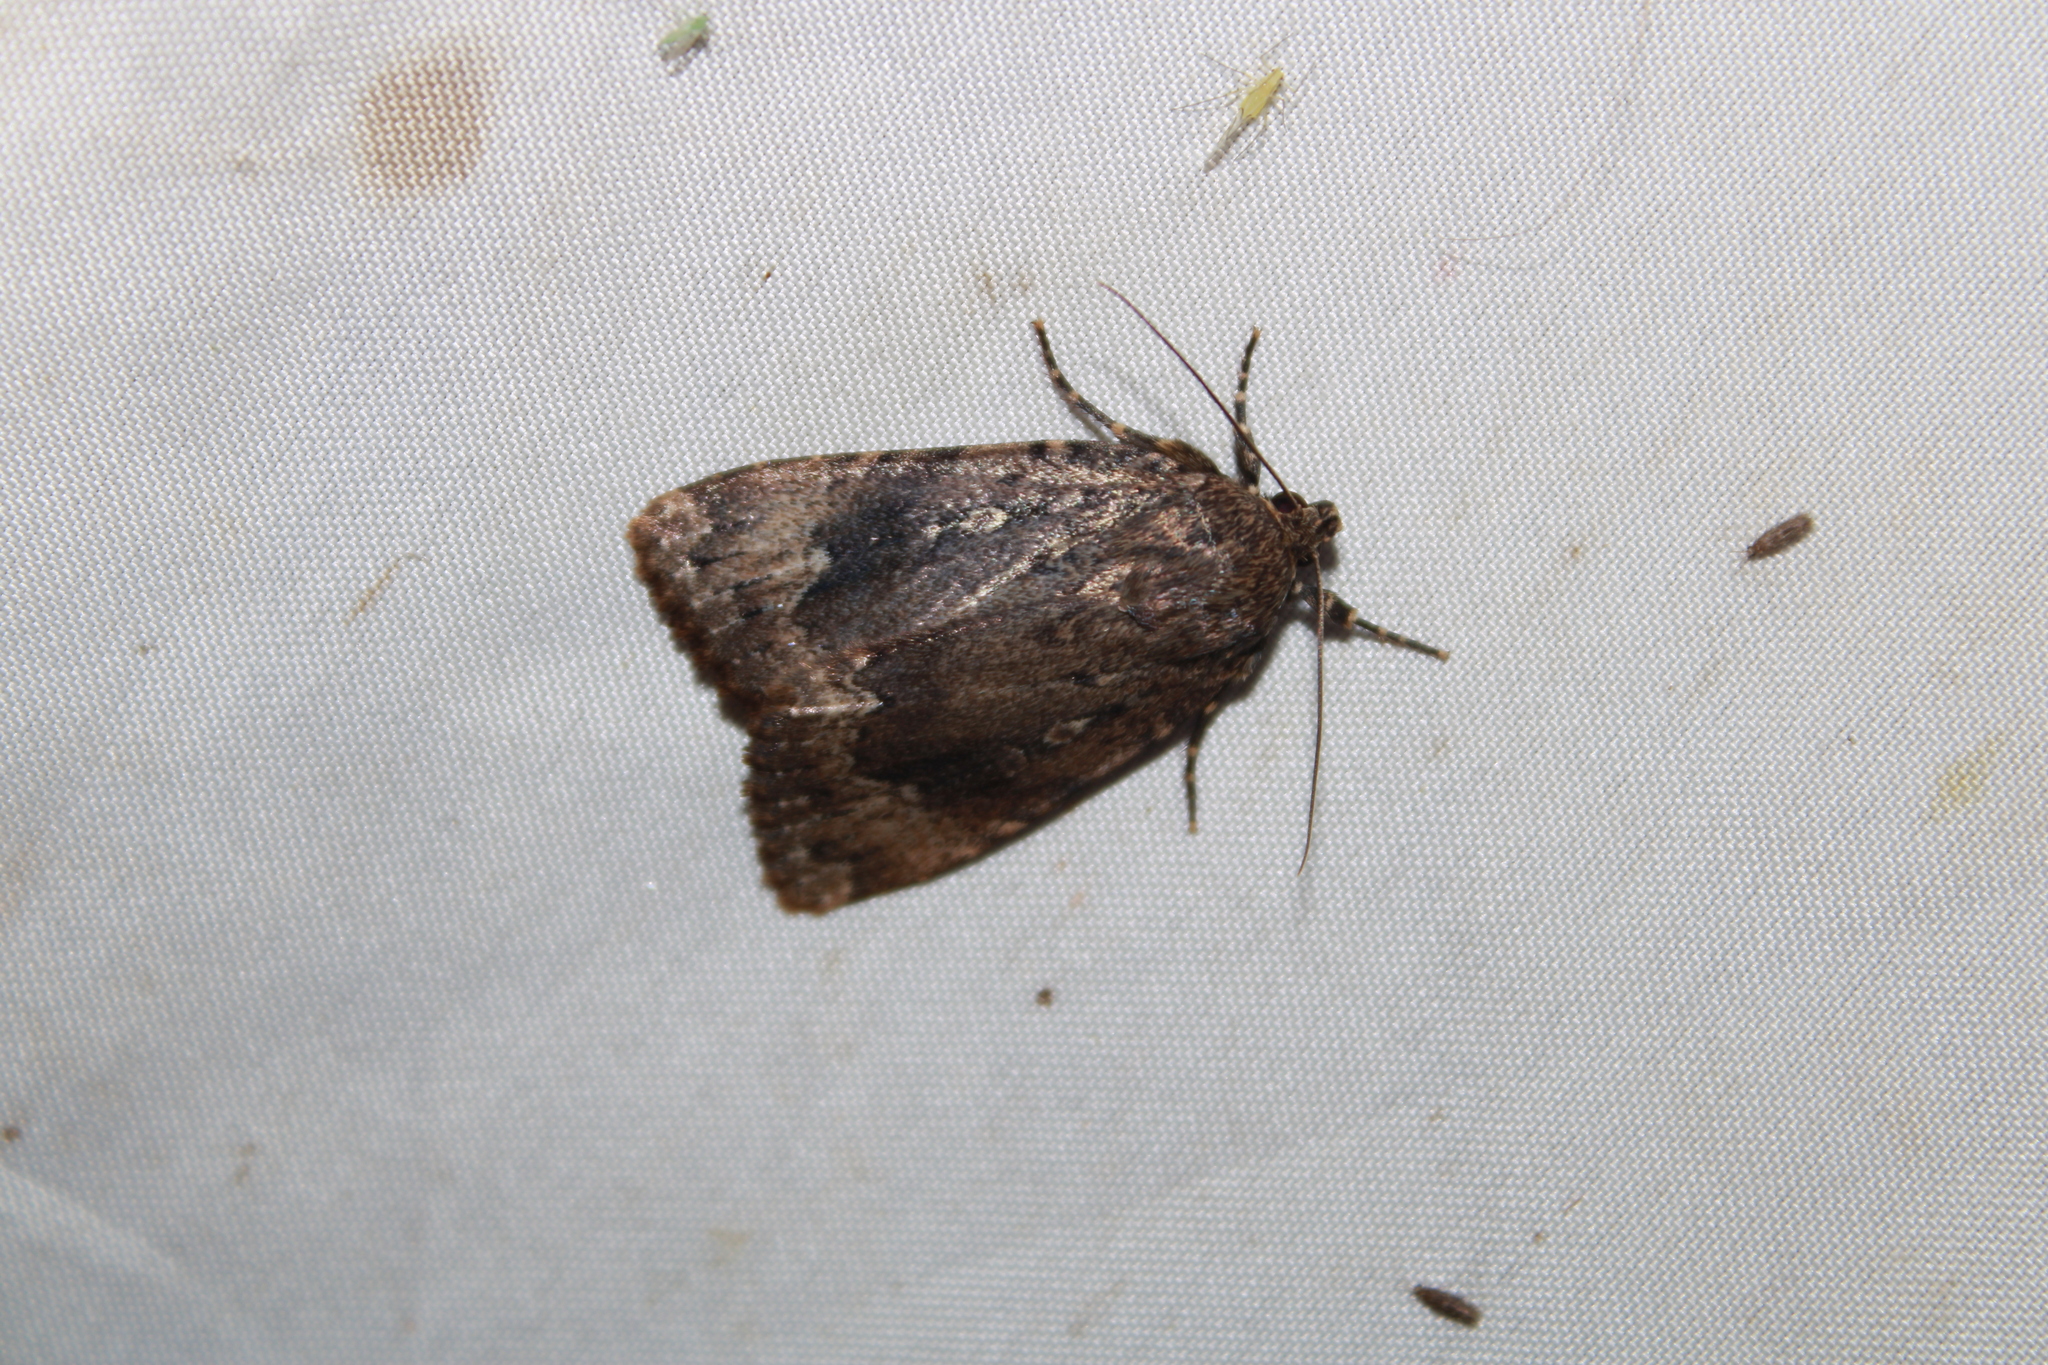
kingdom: Animalia
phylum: Arthropoda
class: Insecta
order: Lepidoptera
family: Noctuidae
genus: Amphipyra
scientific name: Amphipyra pyramidoides
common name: American copper underwing
